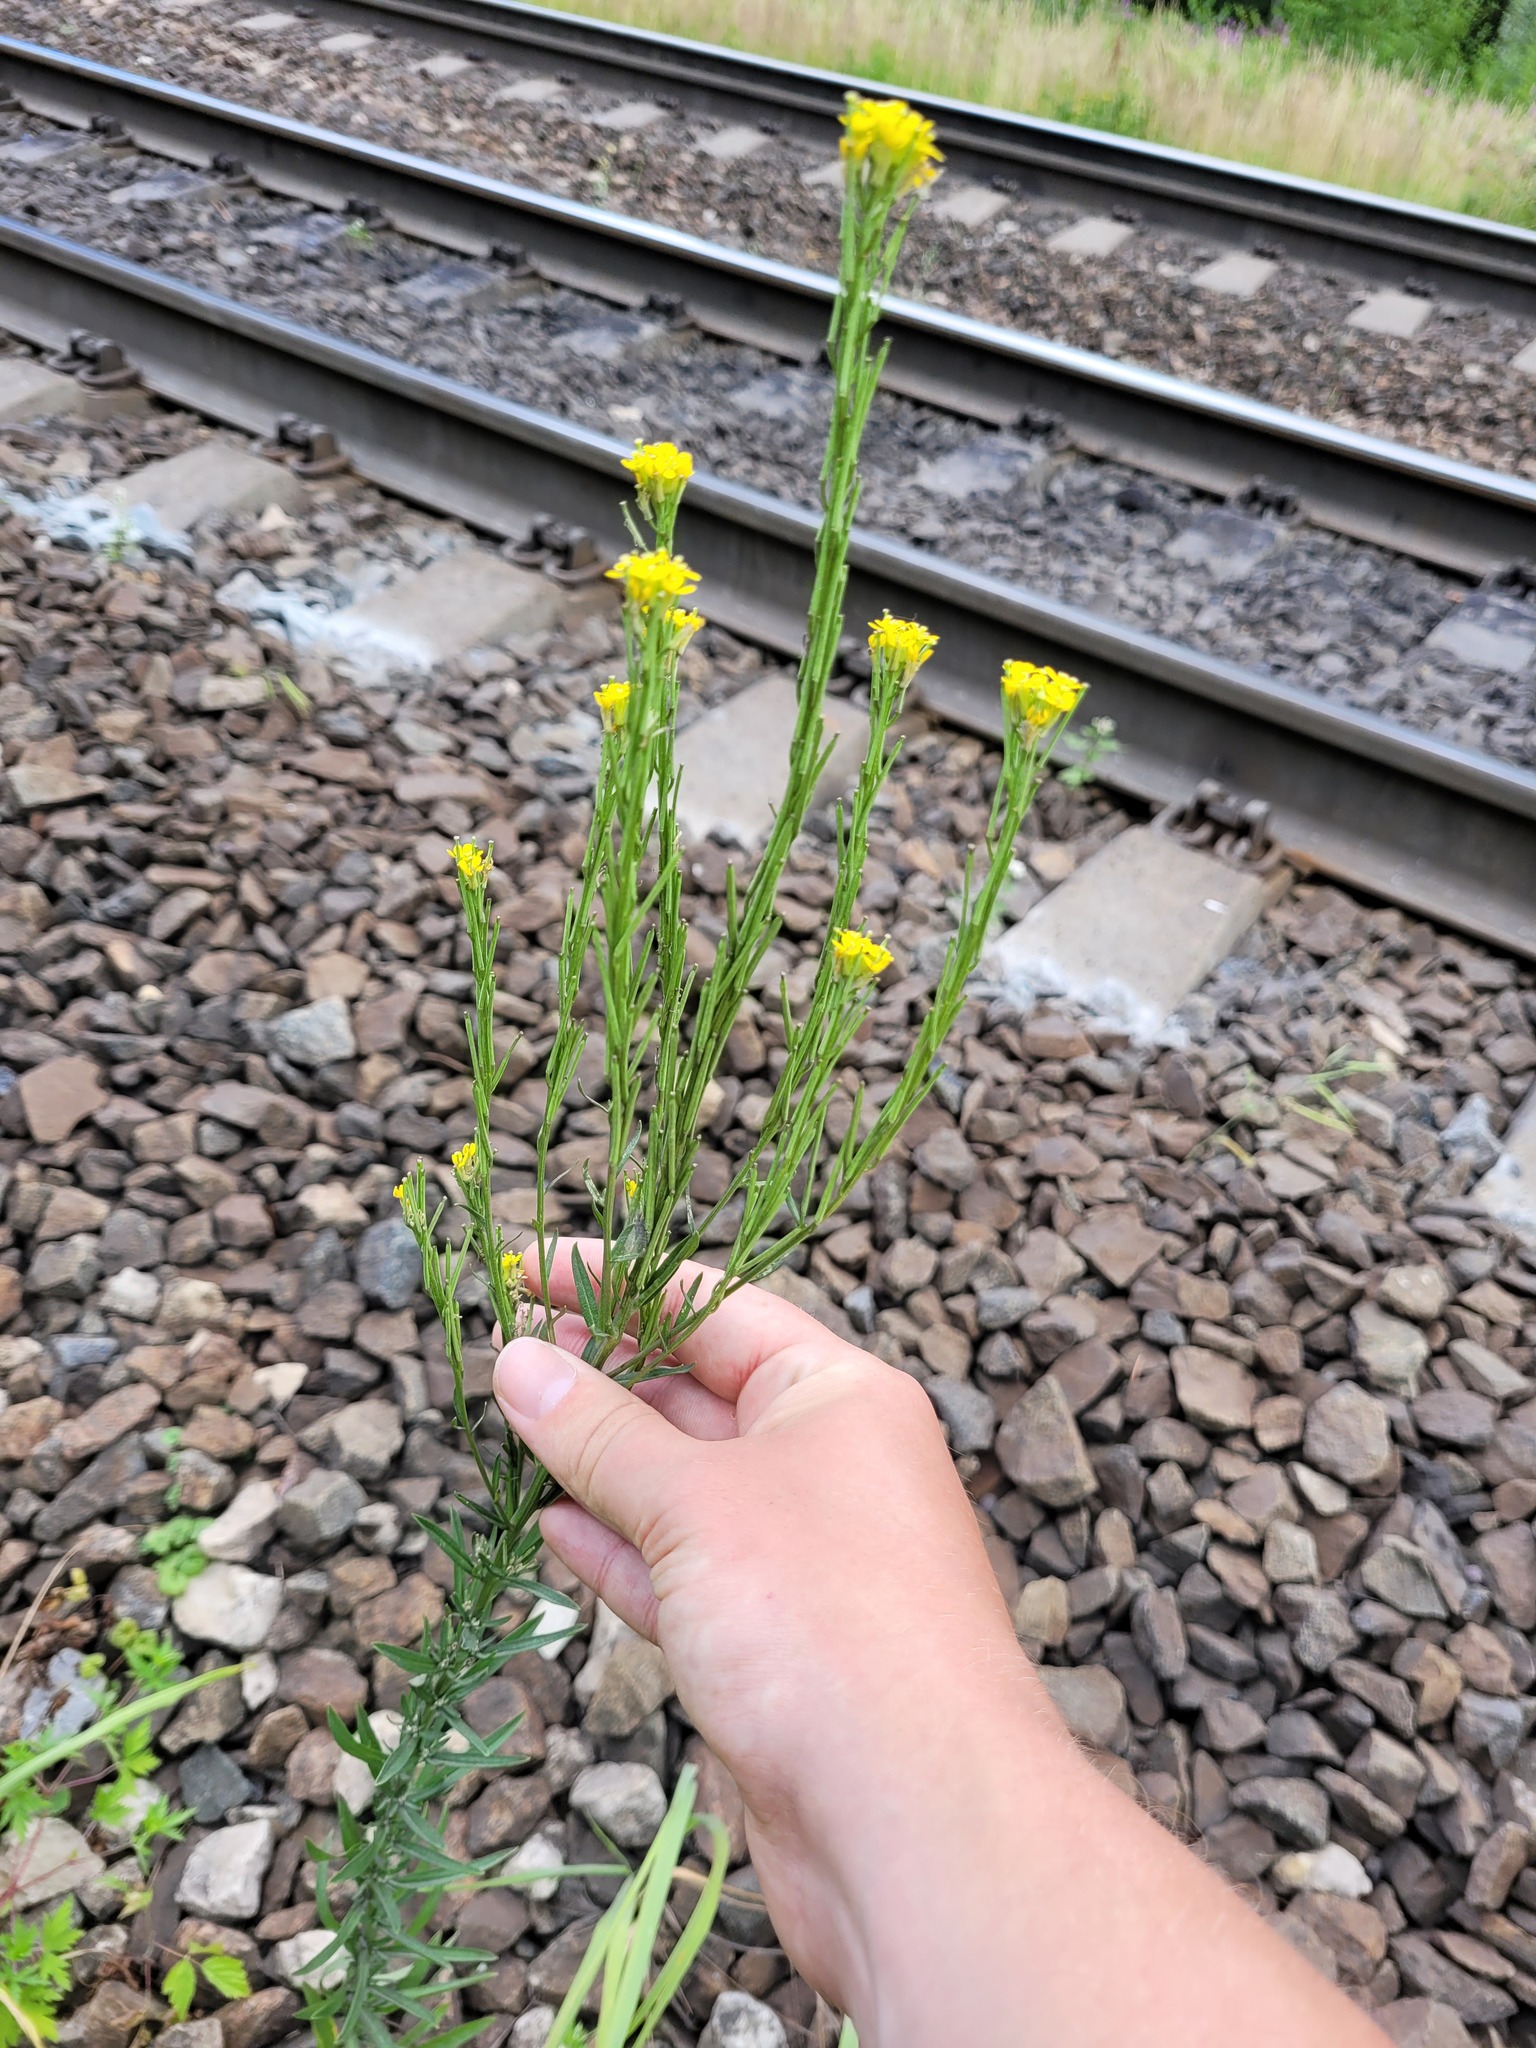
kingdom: Plantae
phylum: Tracheophyta
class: Magnoliopsida
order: Brassicales
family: Brassicaceae
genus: Erysimum
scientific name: Erysimum hieraciifolium
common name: European wallflower
